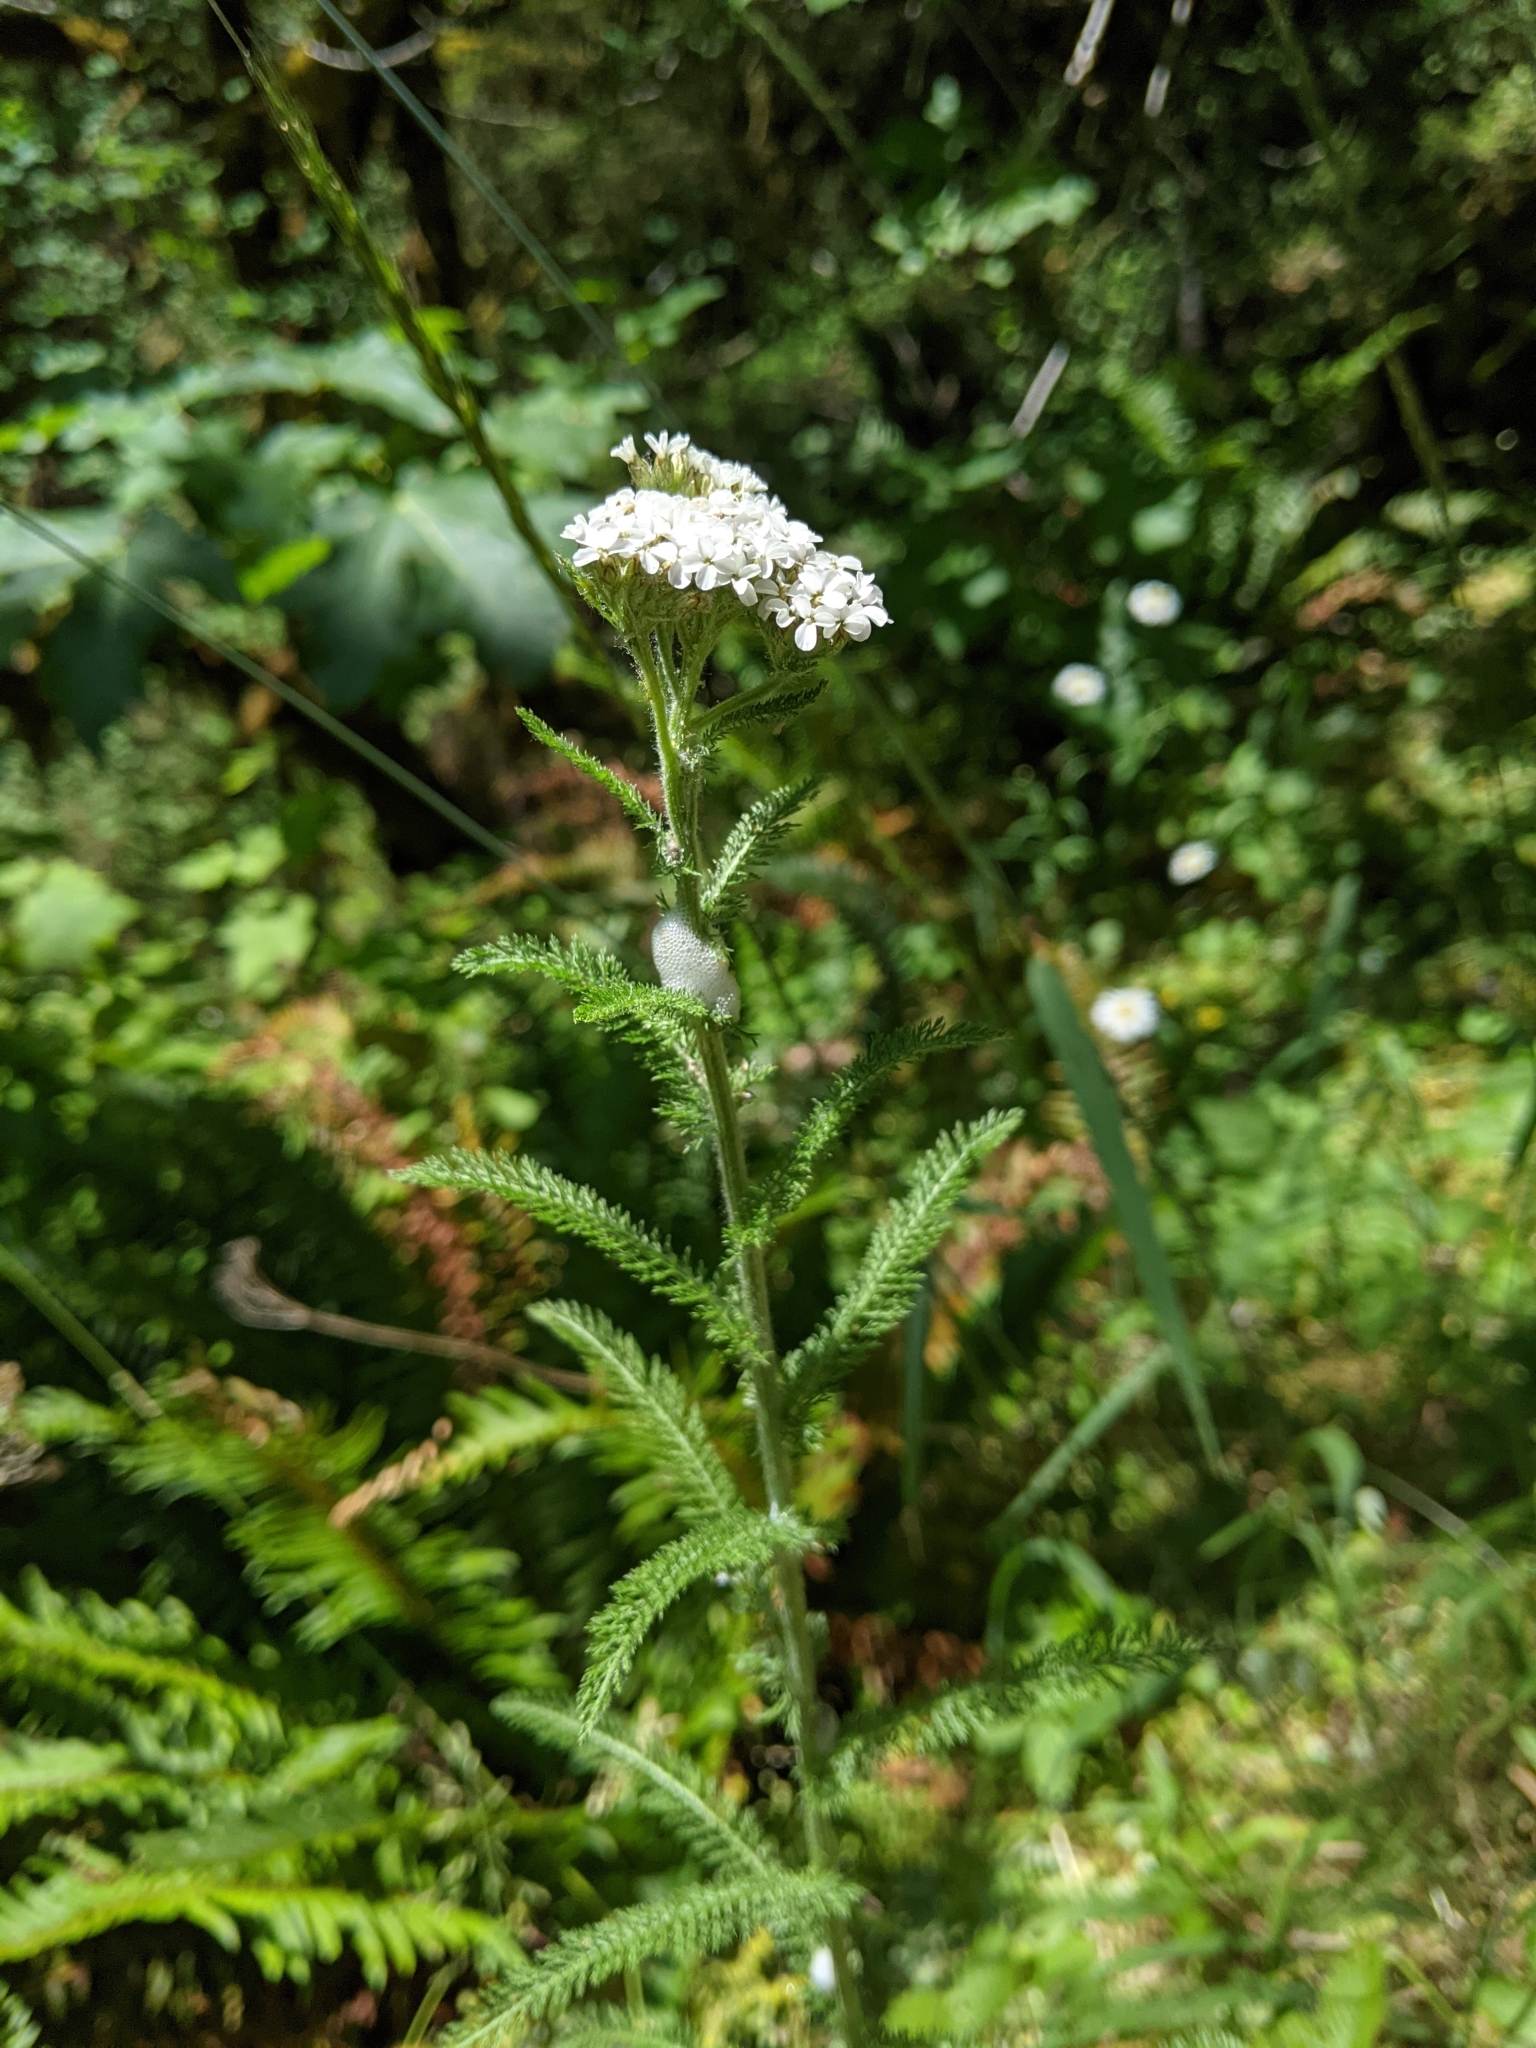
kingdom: Plantae
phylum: Tracheophyta
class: Magnoliopsida
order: Asterales
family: Asteraceae
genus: Achillea
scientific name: Achillea millefolium
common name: Yarrow
